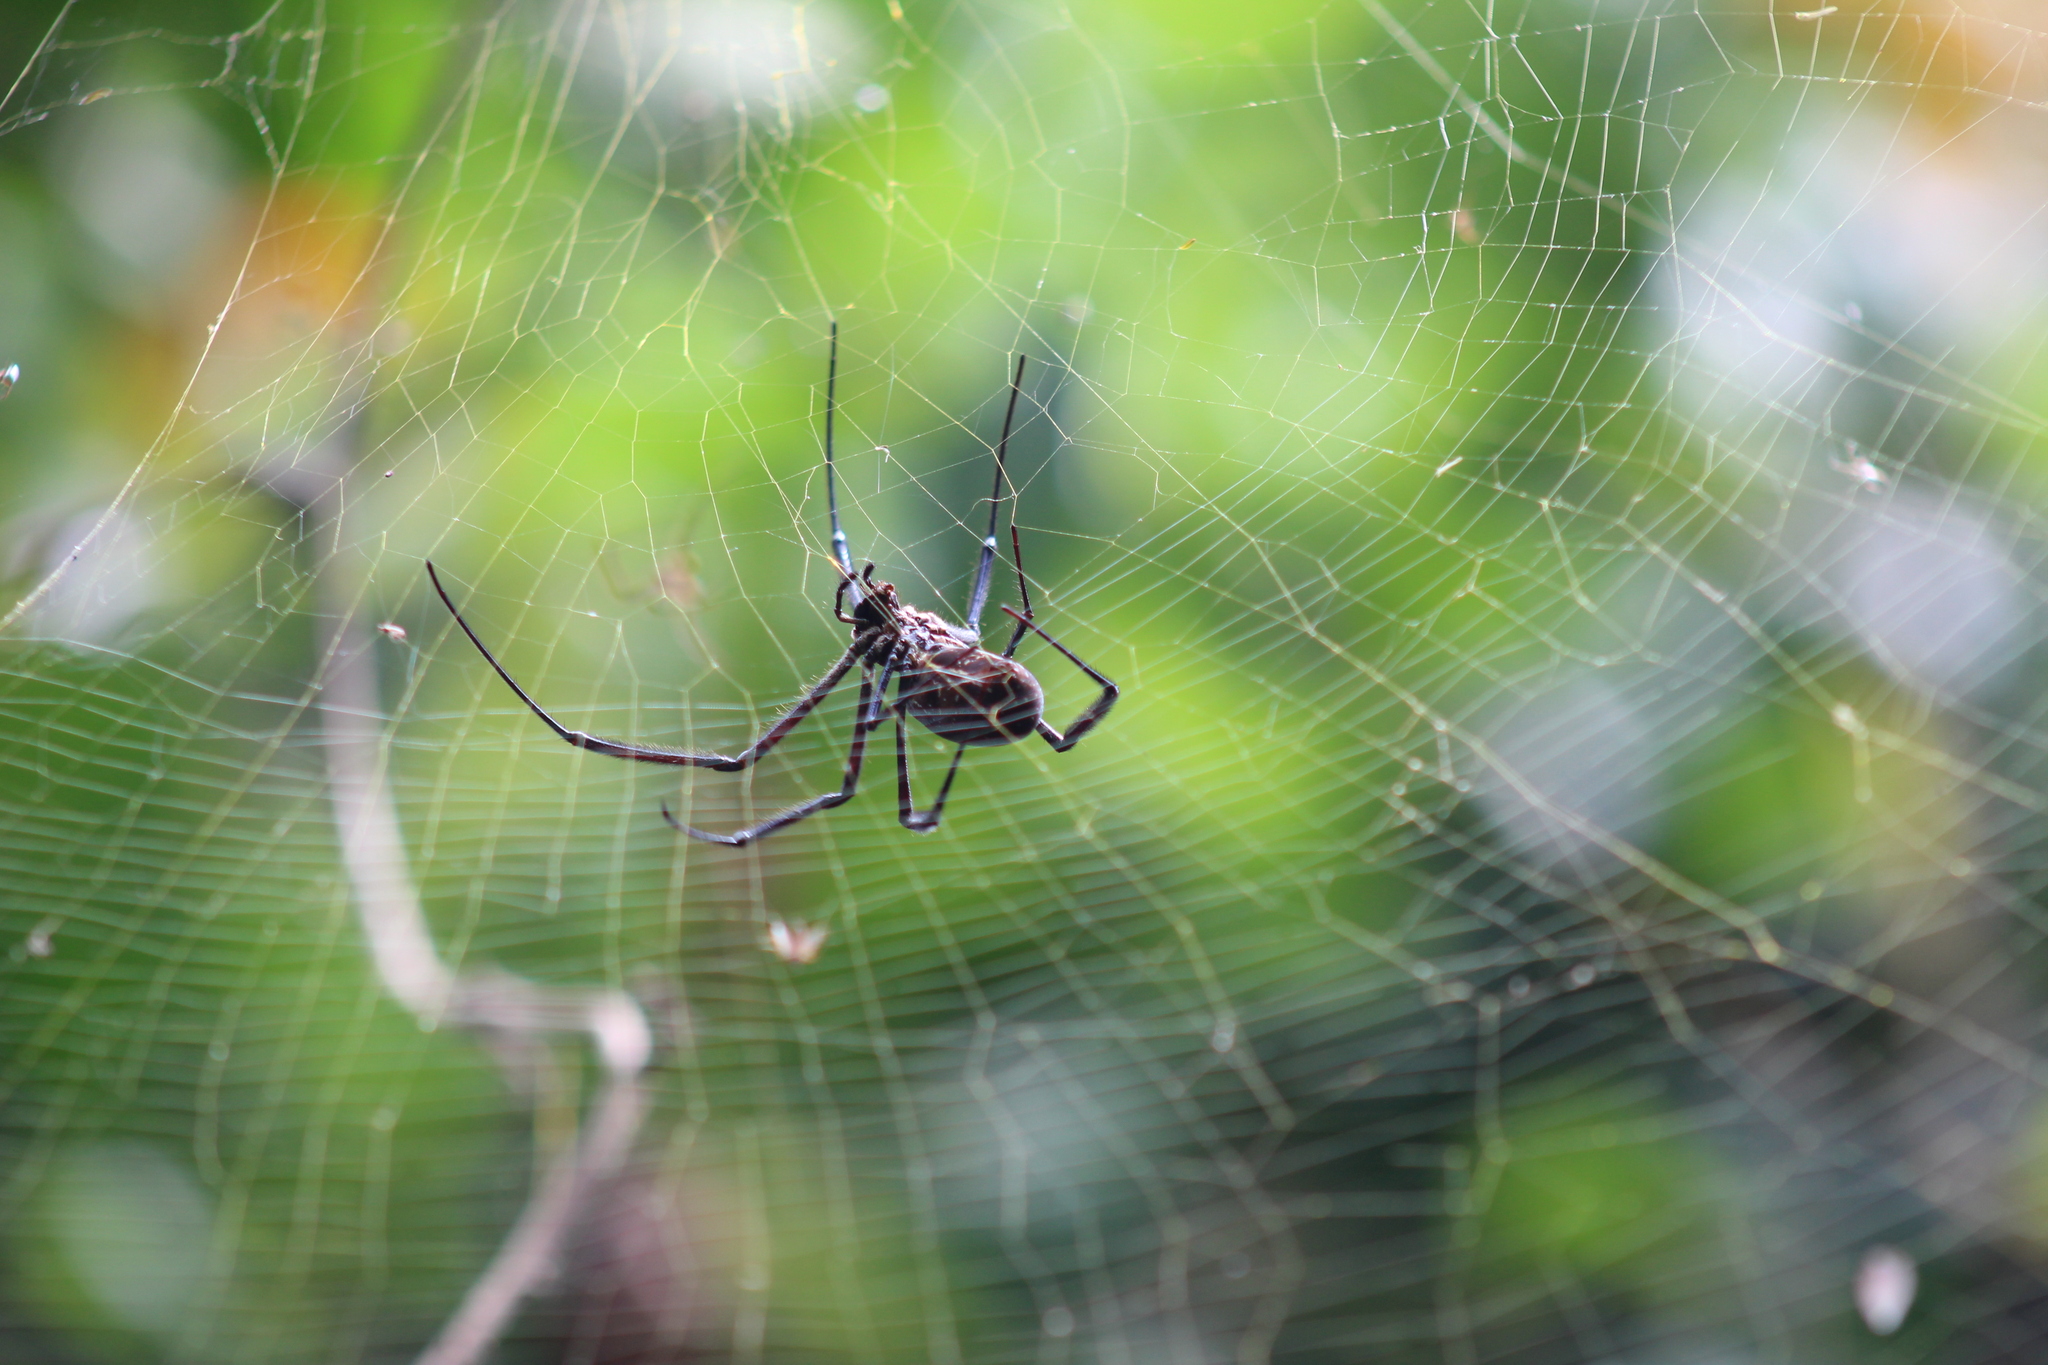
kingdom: Animalia
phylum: Arthropoda
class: Arachnida
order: Araneae
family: Araneidae
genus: Trichonephila
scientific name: Trichonephila fenestrata
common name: Hairy golden orb weaver
